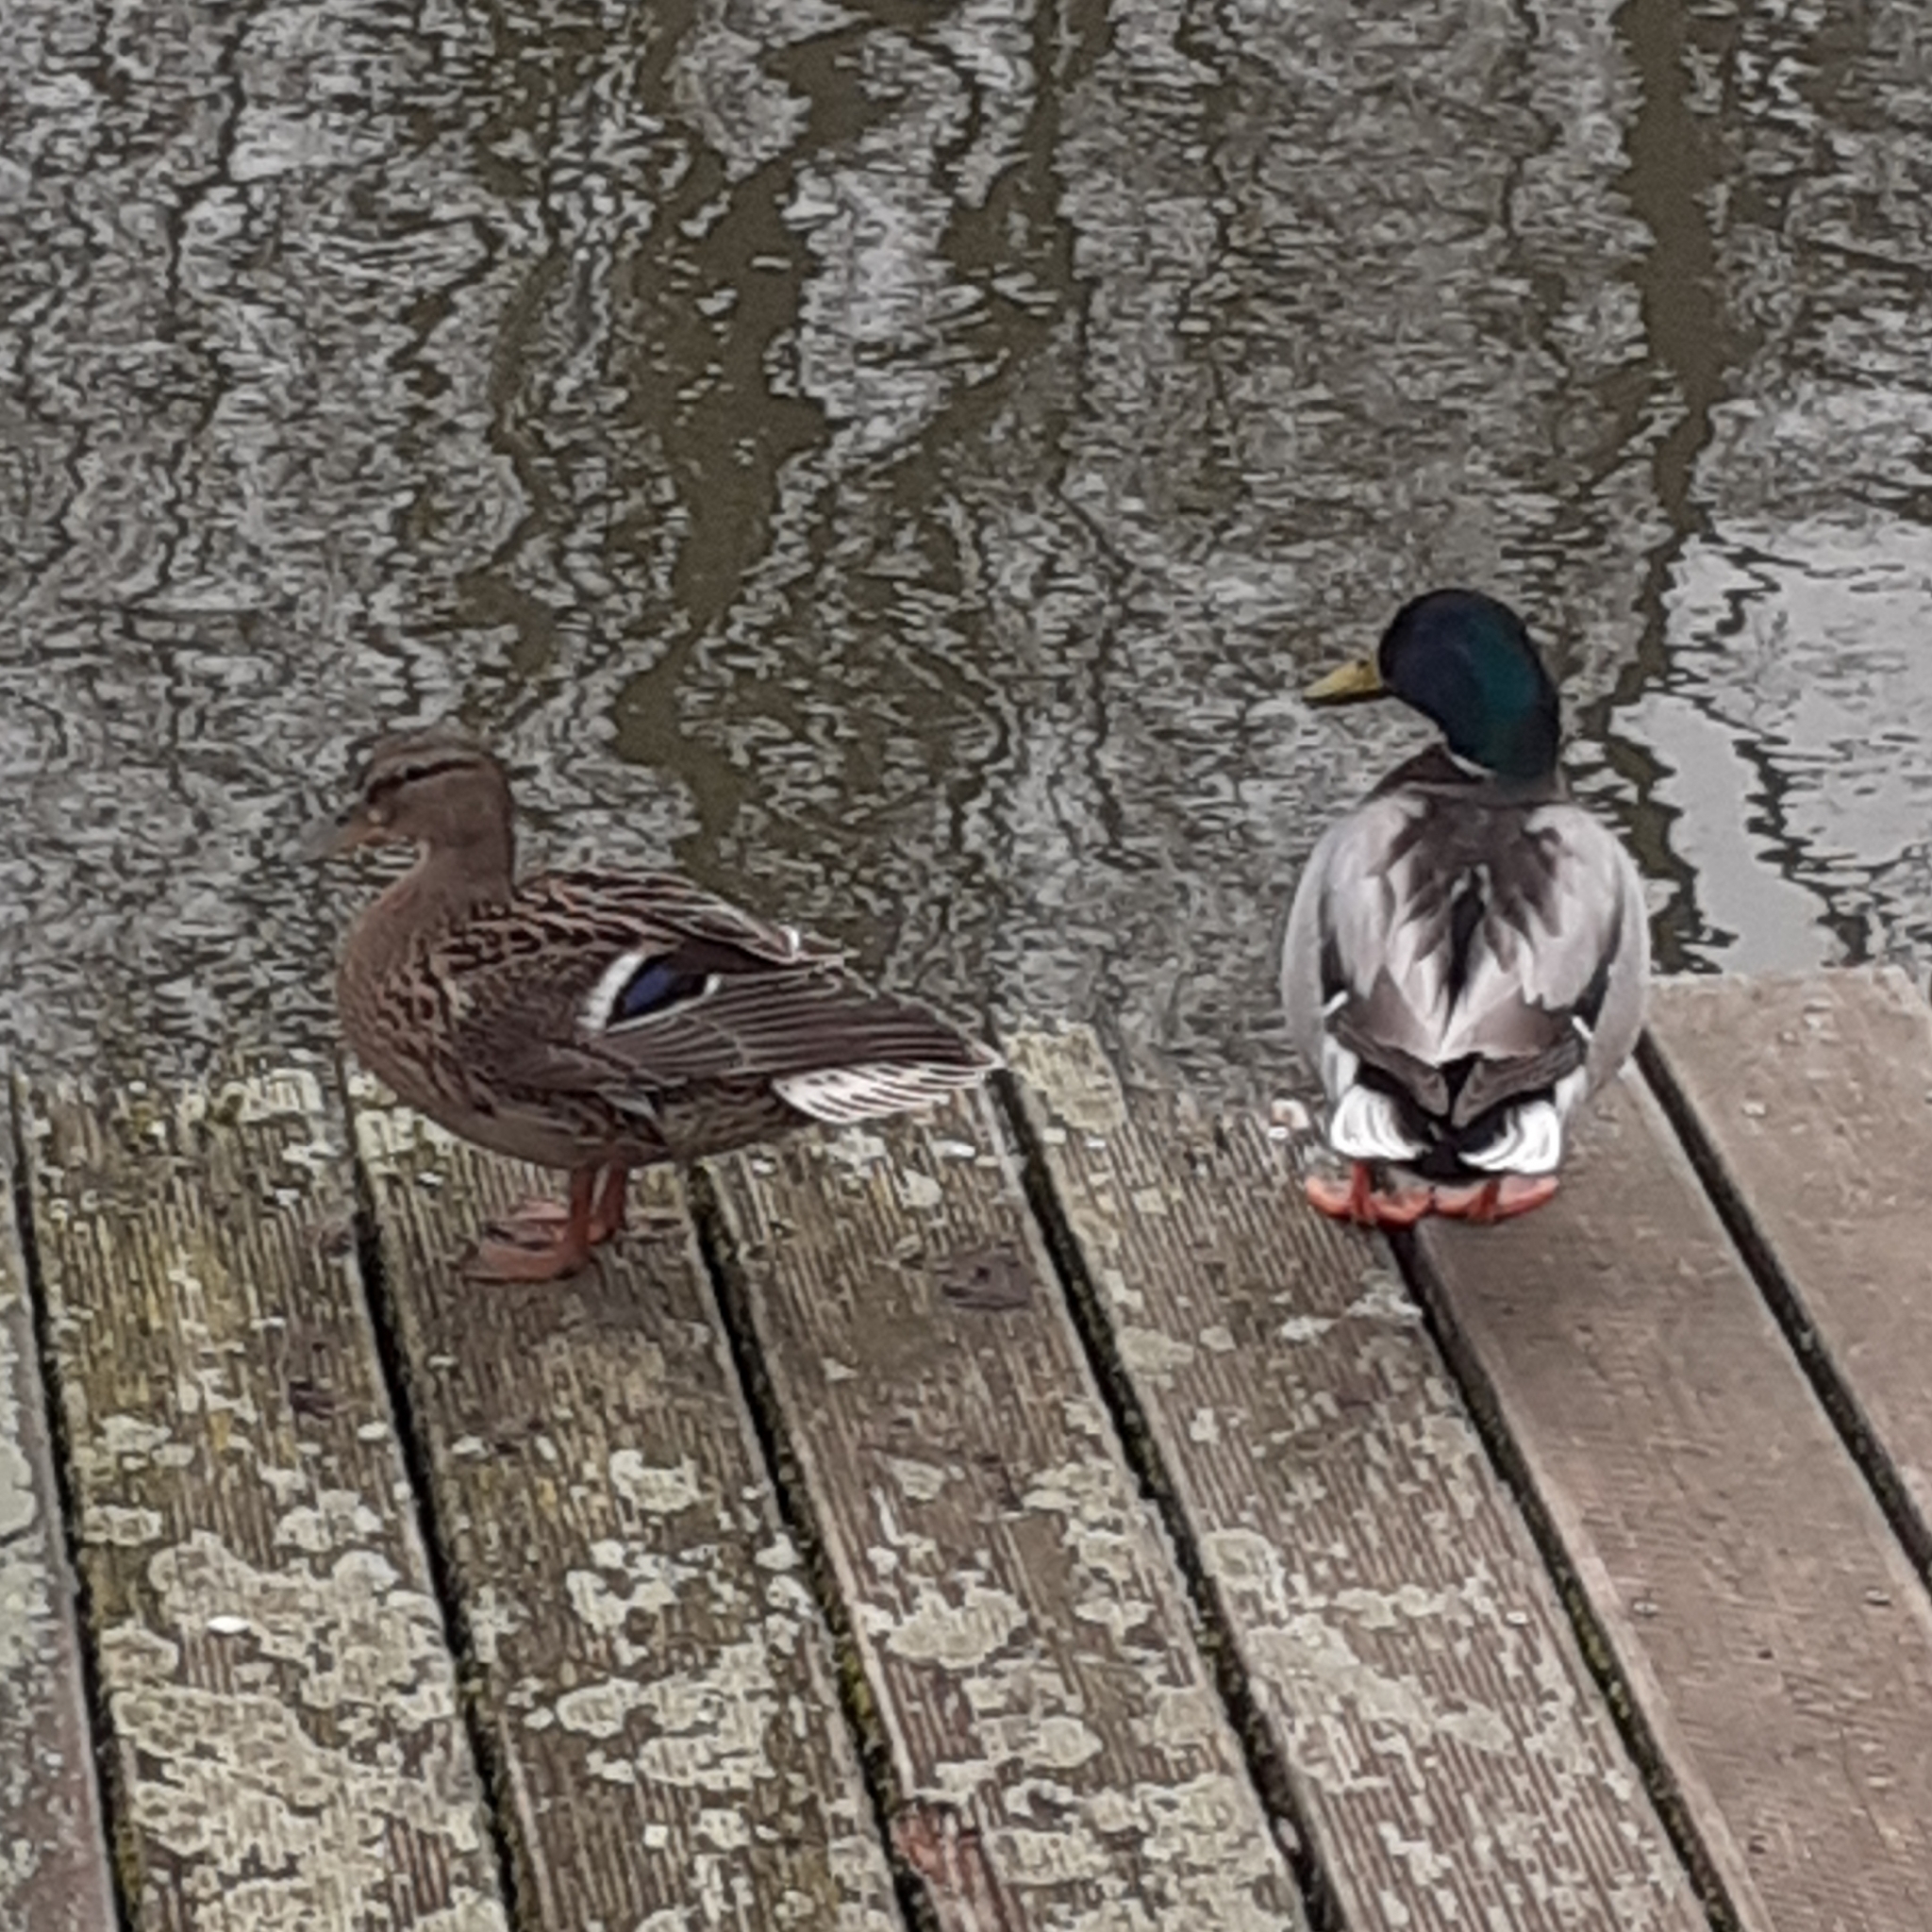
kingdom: Animalia
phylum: Chordata
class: Aves
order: Anseriformes
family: Anatidae
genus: Anas
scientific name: Anas platyrhynchos
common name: Mallard
